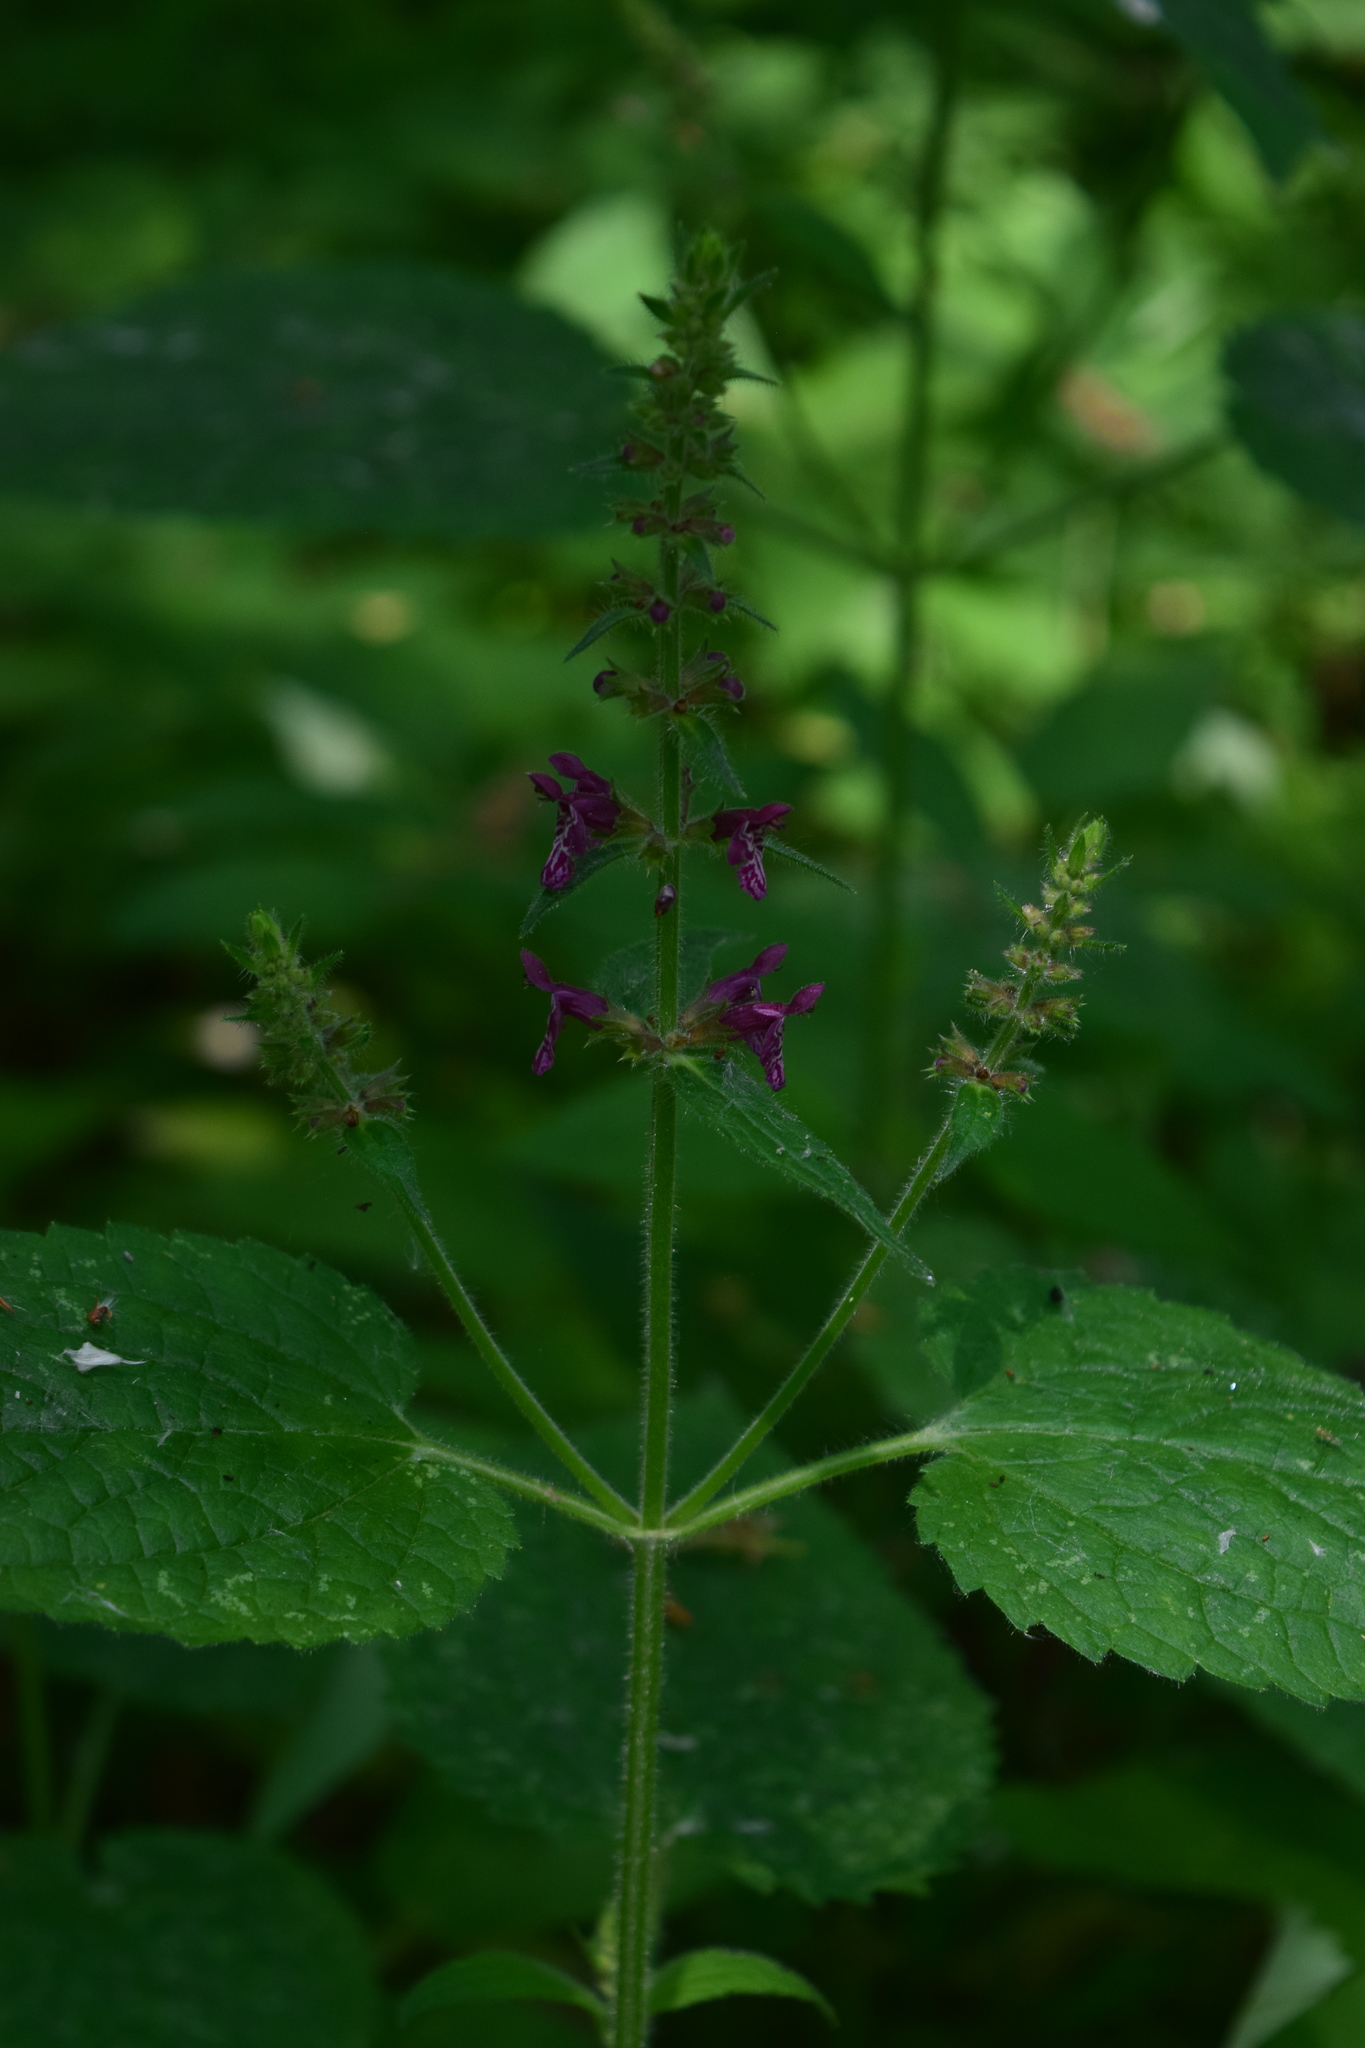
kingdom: Plantae
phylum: Tracheophyta
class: Magnoliopsida
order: Lamiales
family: Lamiaceae
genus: Stachys
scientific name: Stachys sylvatica
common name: Hedge woundwort
